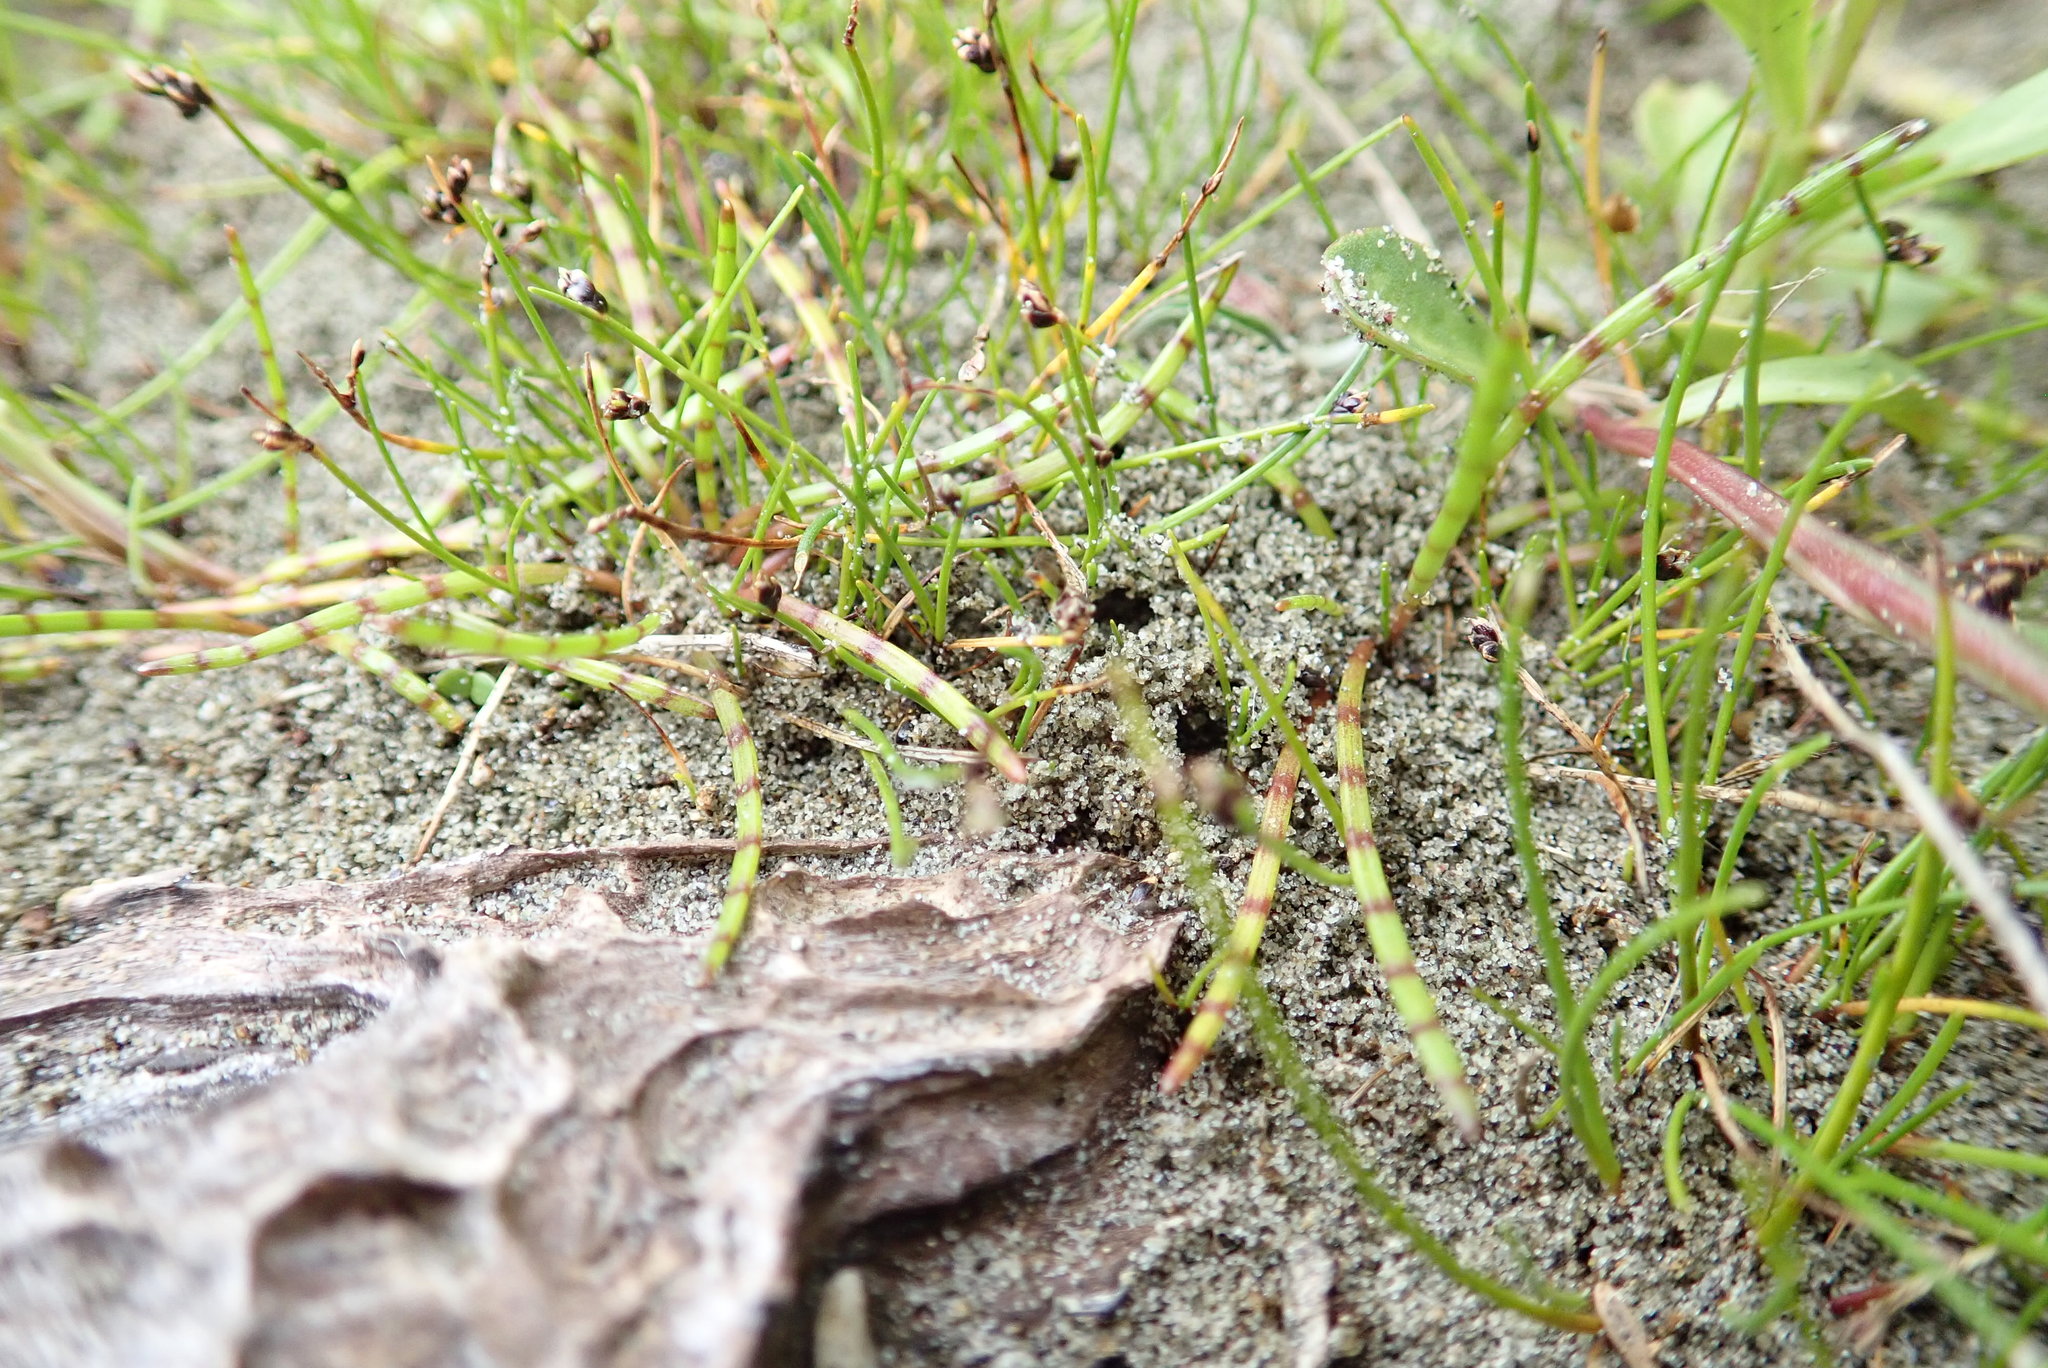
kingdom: Plantae
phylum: Tracheophyta
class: Magnoliopsida
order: Apiales
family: Apiaceae
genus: Lilaeopsis
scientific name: Lilaeopsis novae-zelandiae
